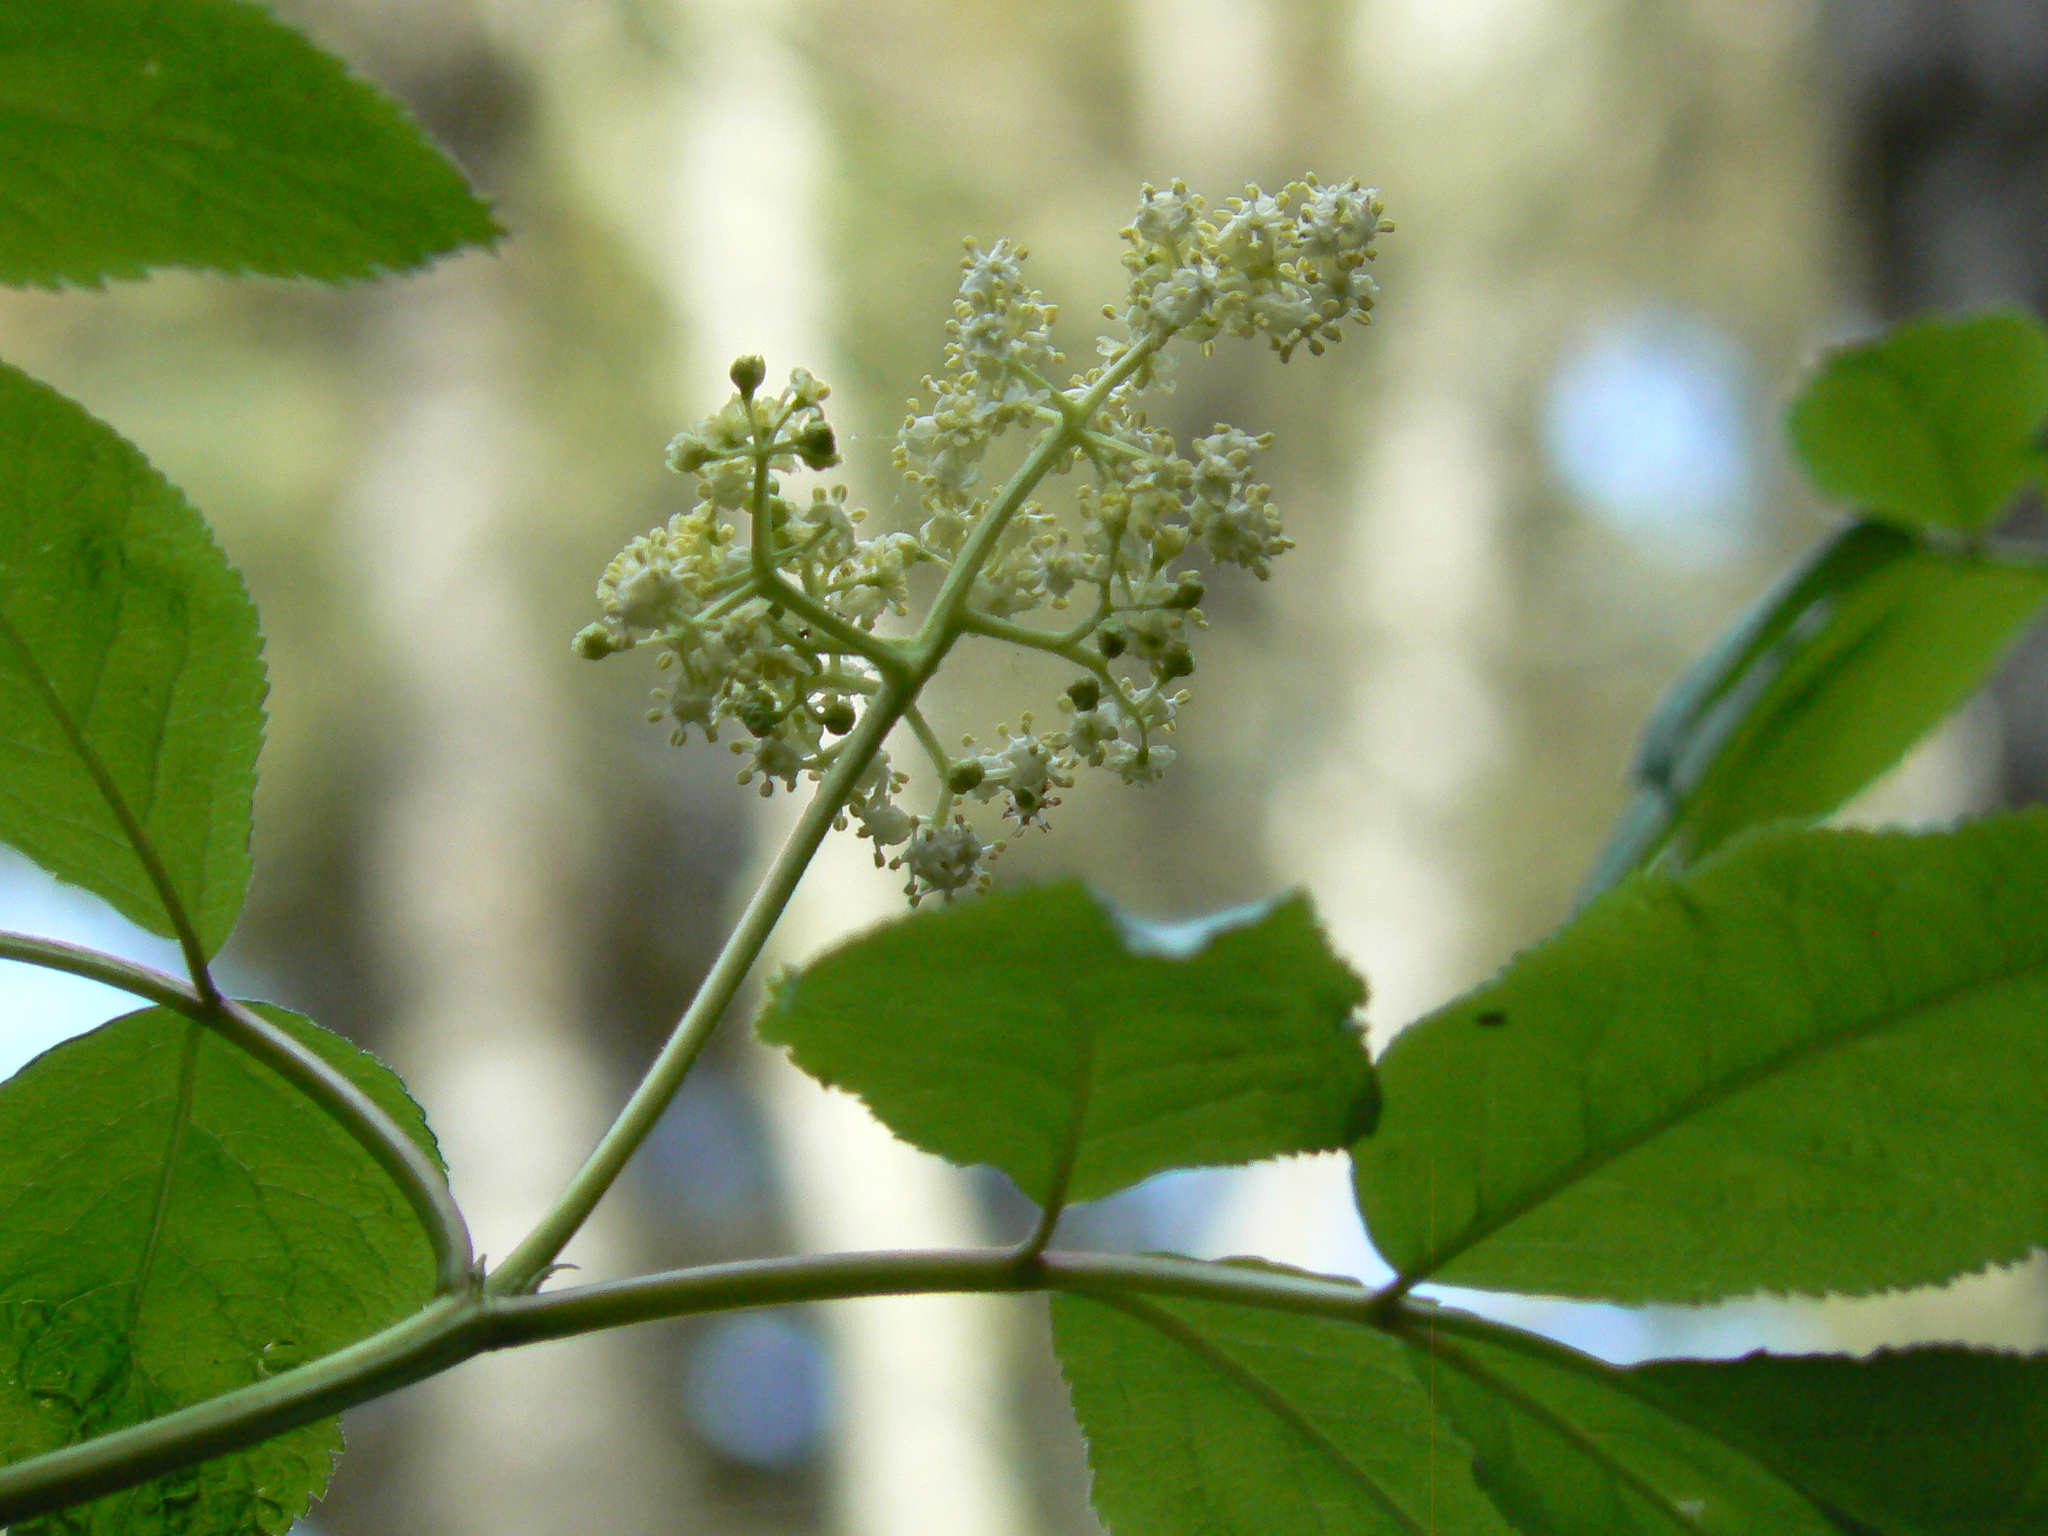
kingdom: Plantae
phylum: Tracheophyta
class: Magnoliopsida
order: Dipsacales
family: Viburnaceae
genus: Sambucus
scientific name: Sambucus racemosa
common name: Red-berried elder
